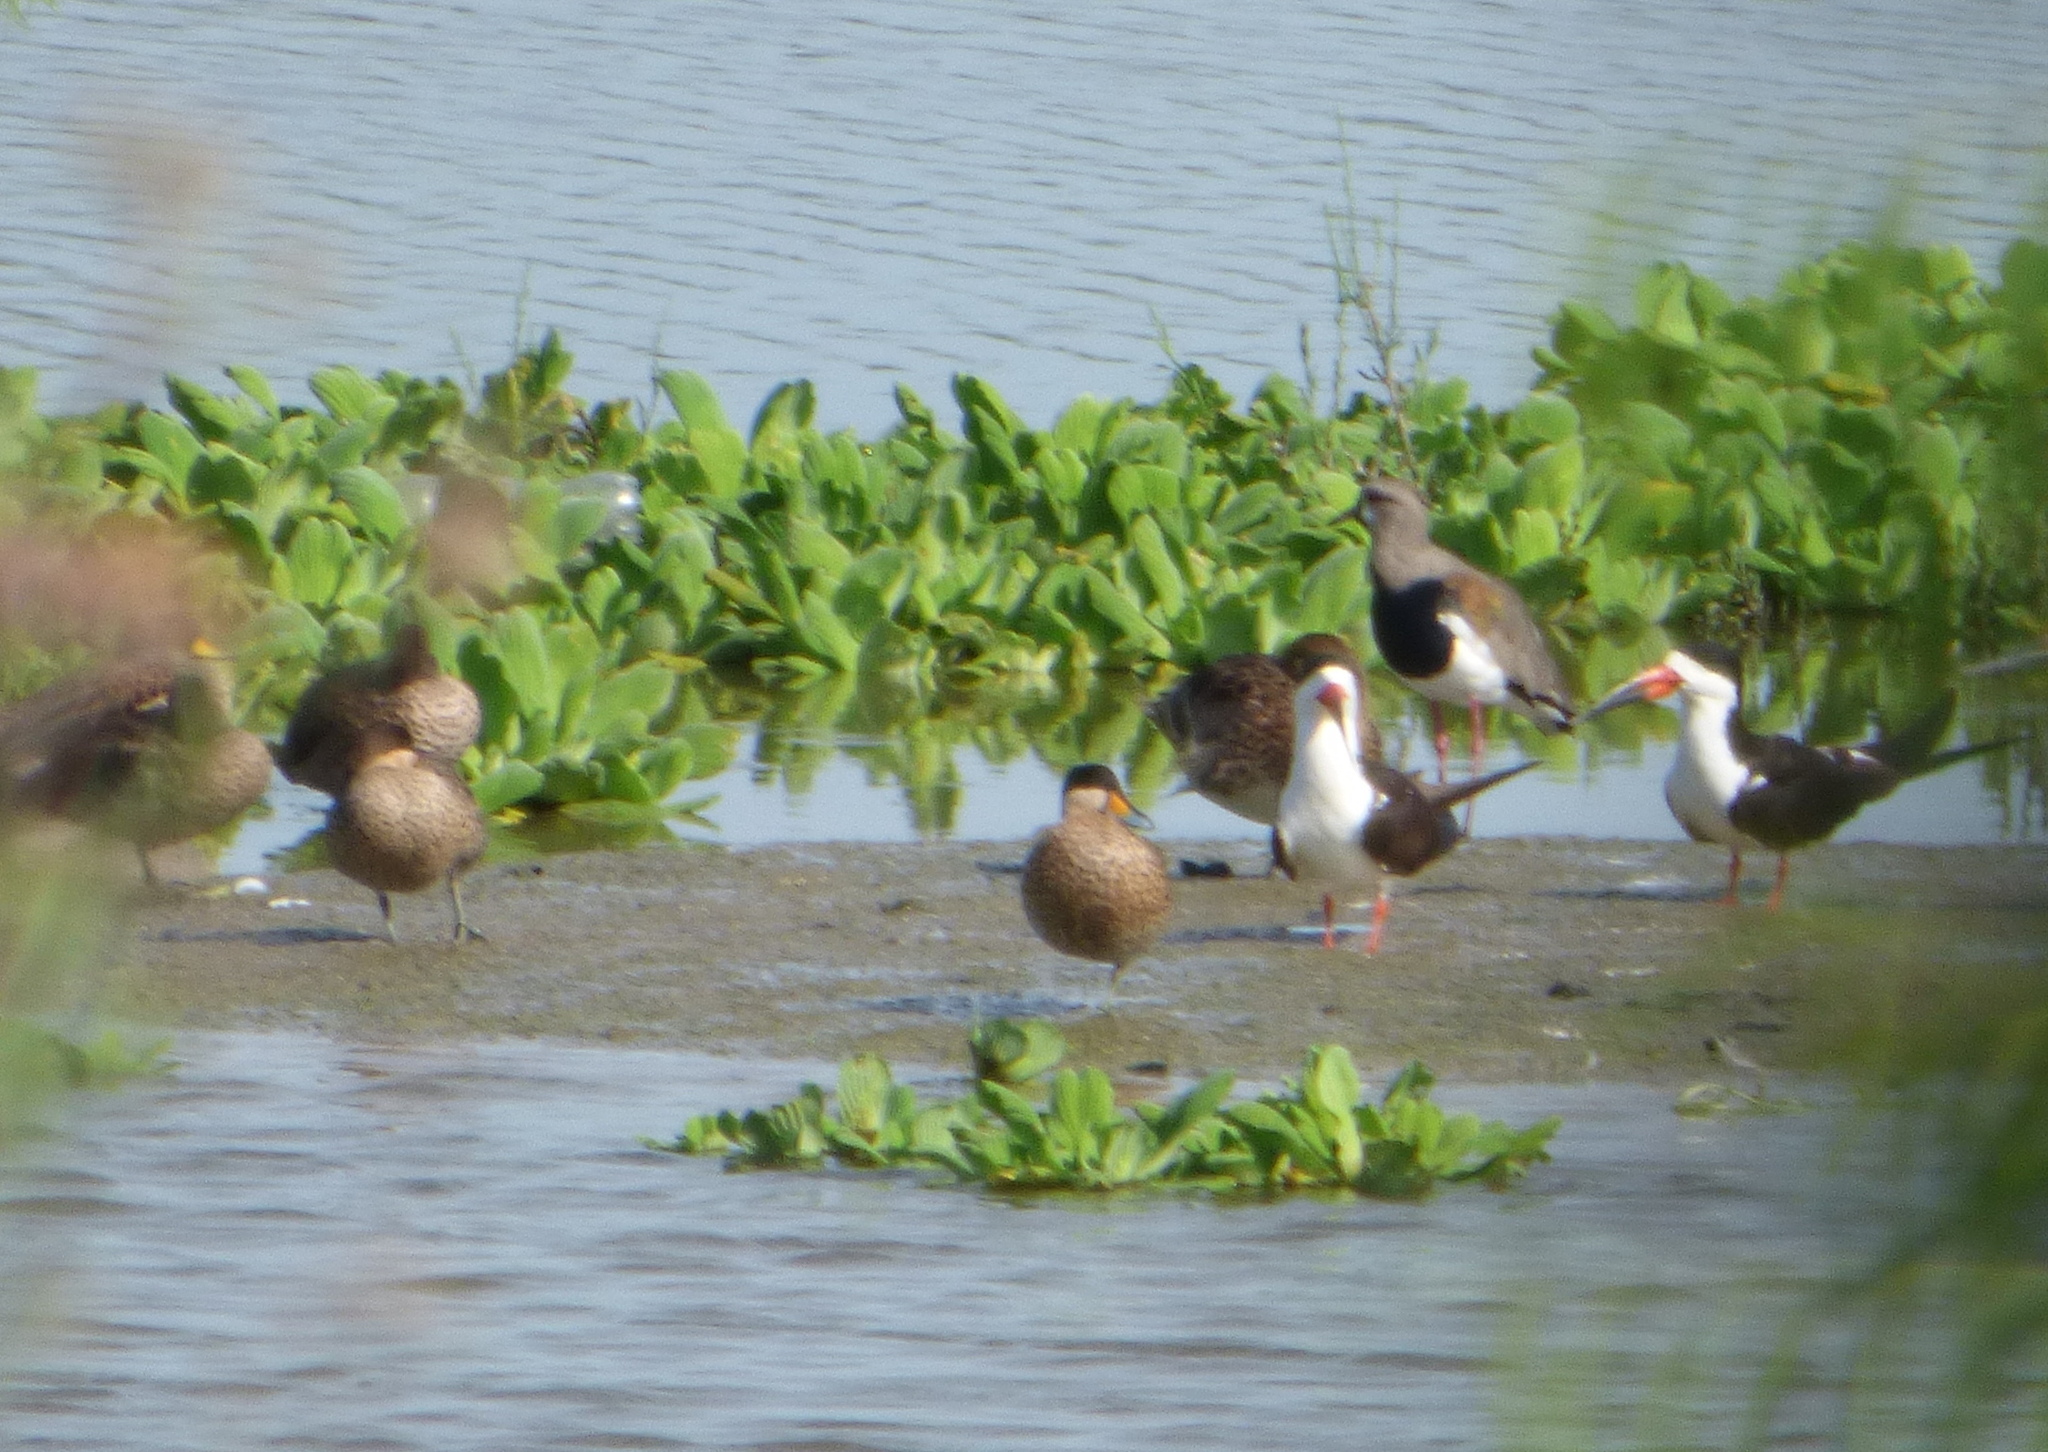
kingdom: Animalia
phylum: Chordata
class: Aves
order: Anseriformes
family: Anatidae
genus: Spatula
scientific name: Spatula versicolor
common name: Silver teal
